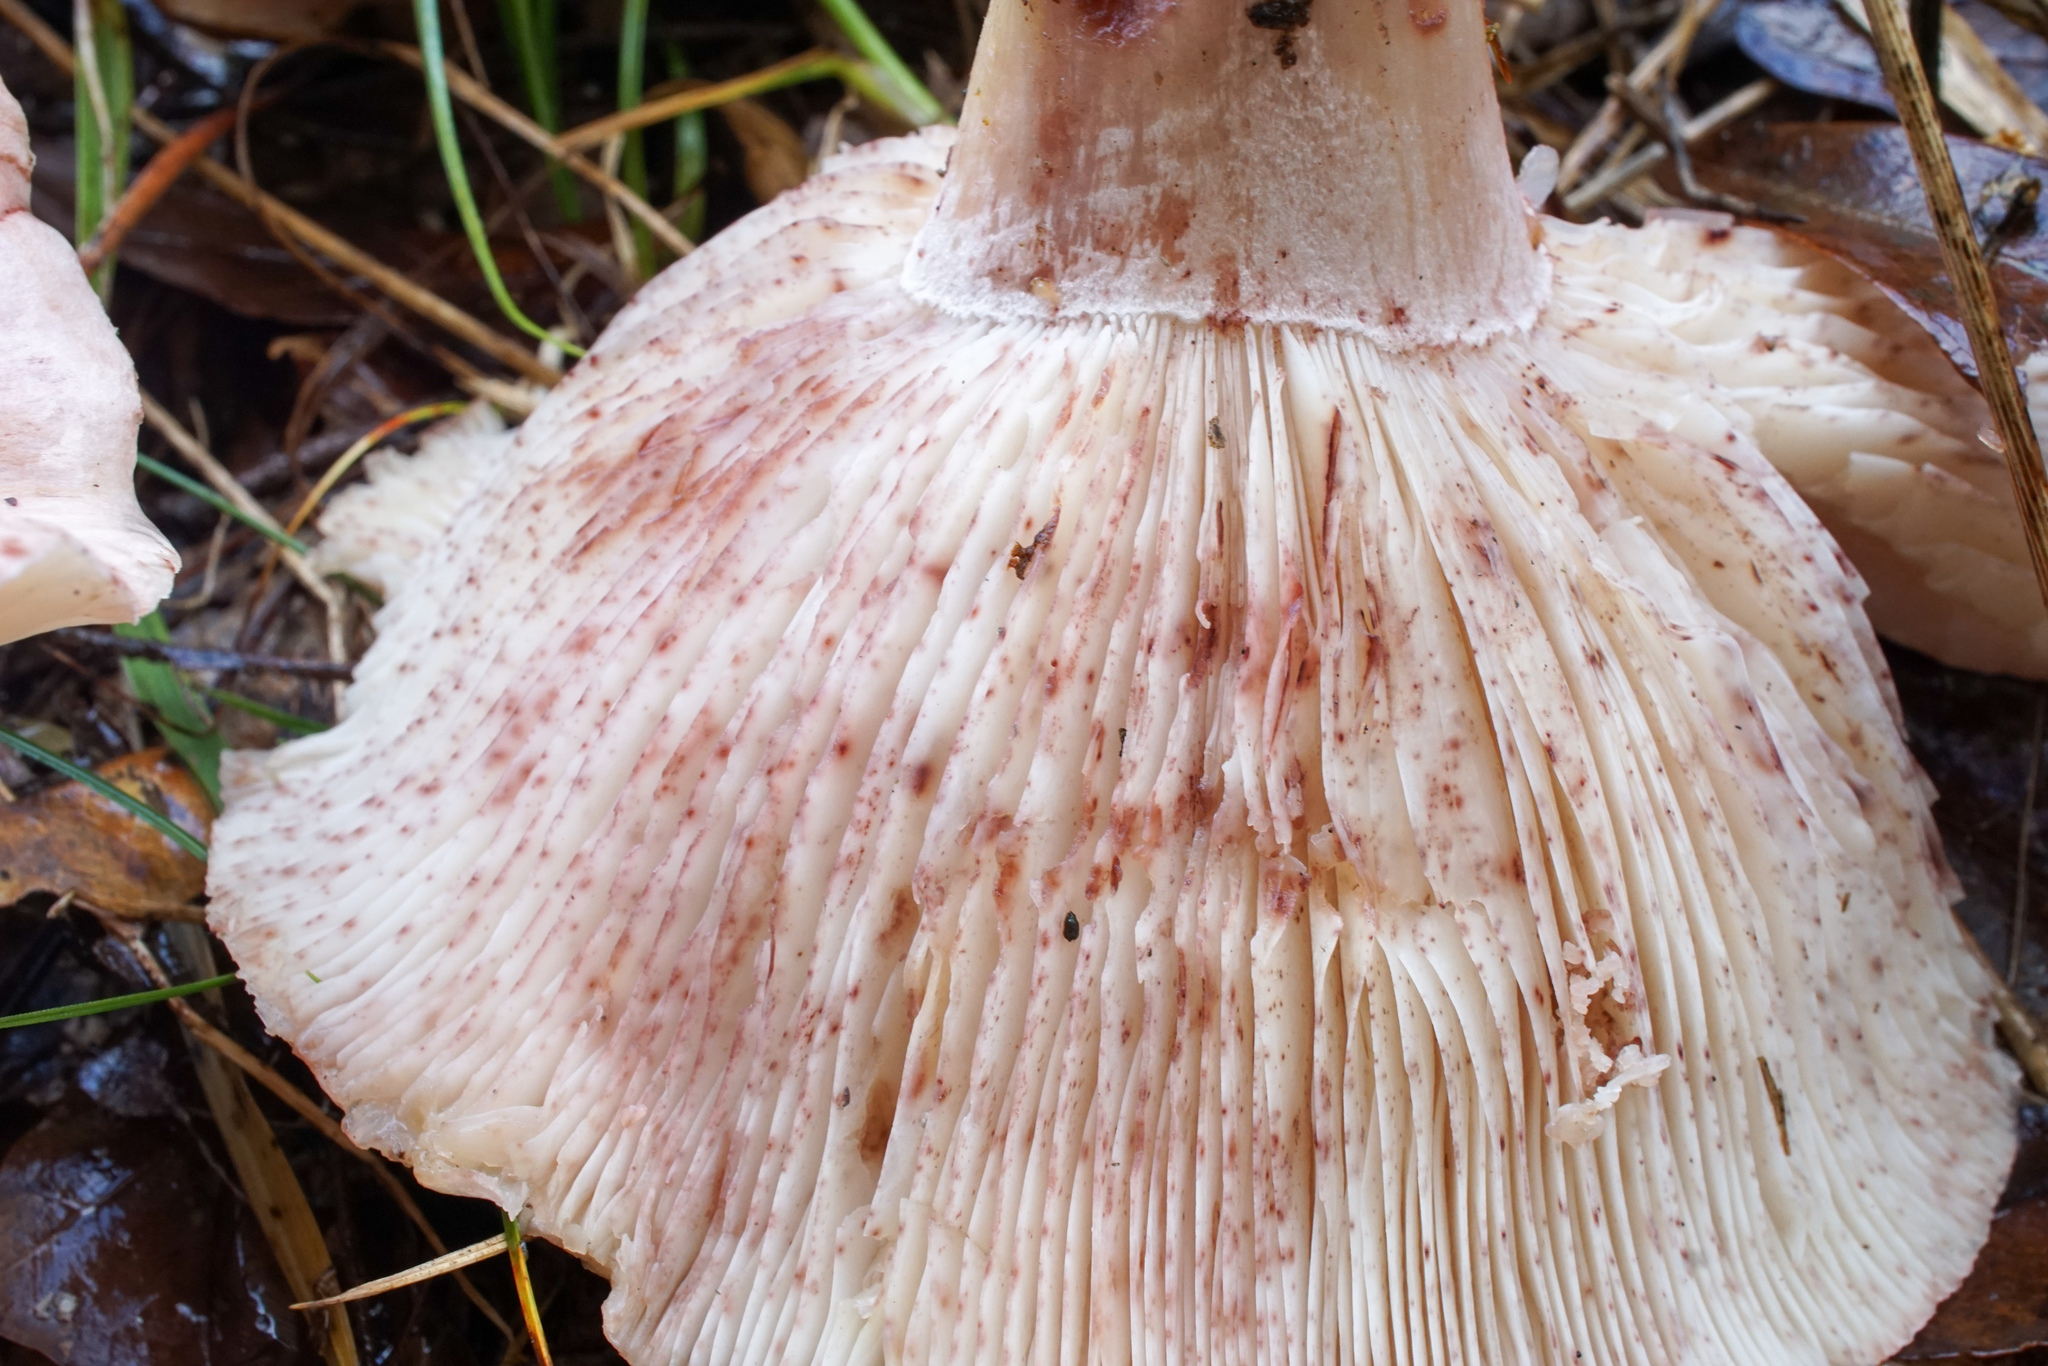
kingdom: Fungi
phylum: Basidiomycota
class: Agaricomycetes
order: Agaricales
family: Hygrophoraceae
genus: Hygrophorus
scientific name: Hygrophorus russula
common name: Pinkmottle woodwax
